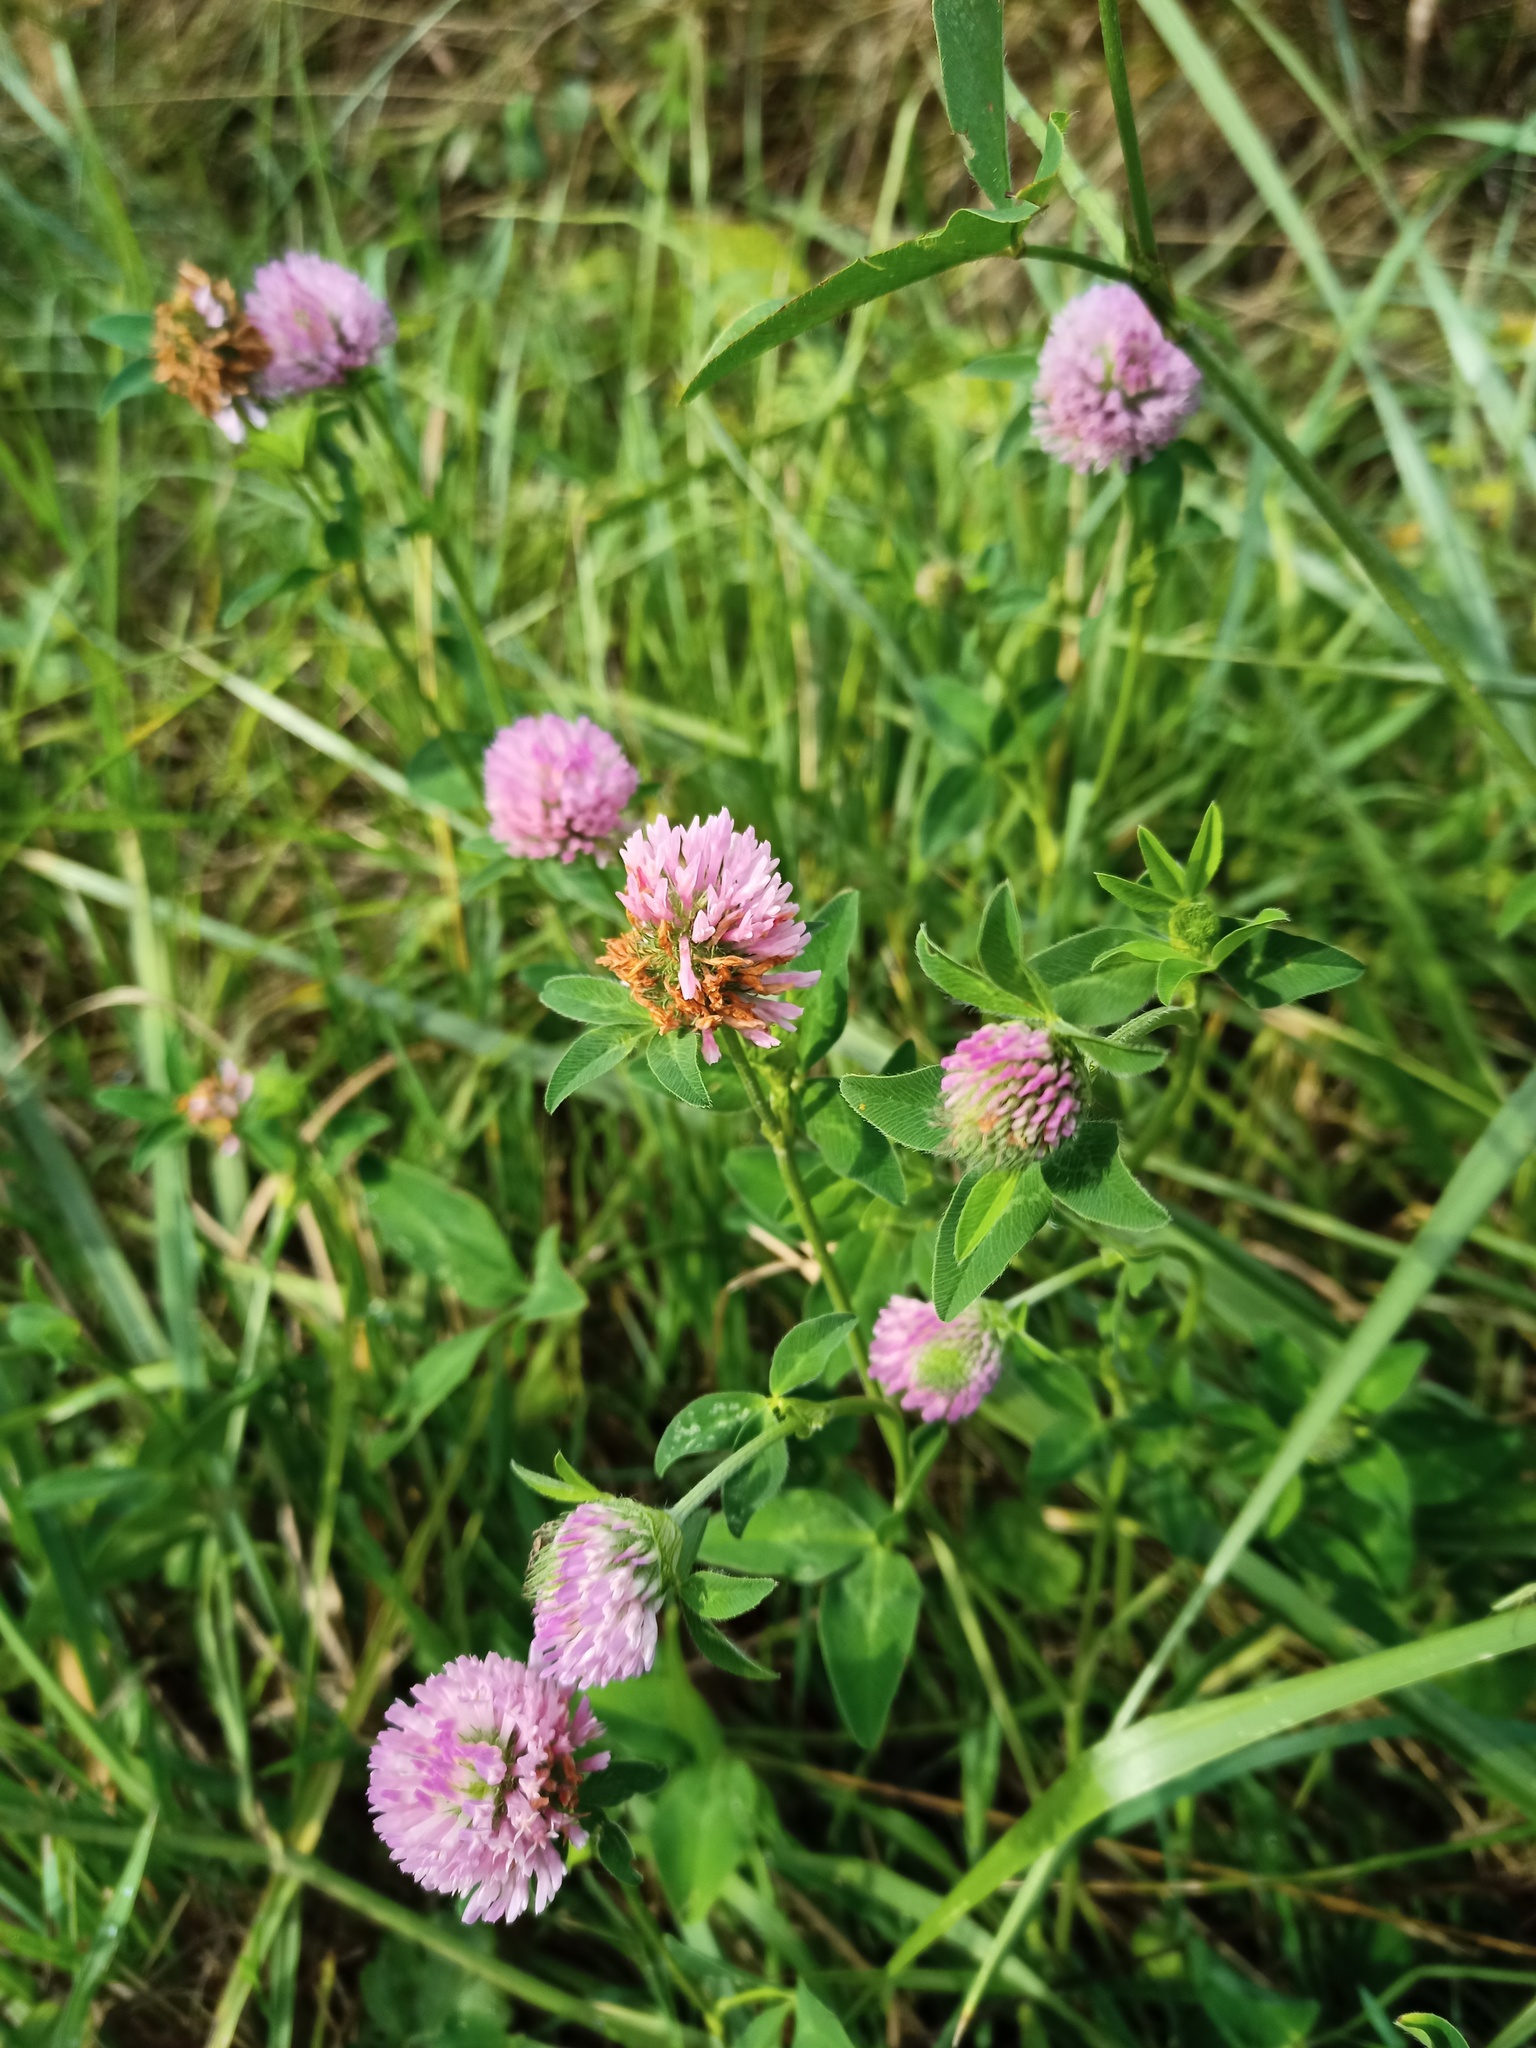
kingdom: Plantae
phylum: Tracheophyta
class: Magnoliopsida
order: Fabales
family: Fabaceae
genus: Trifolium
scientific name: Trifolium pratense
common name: Red clover
